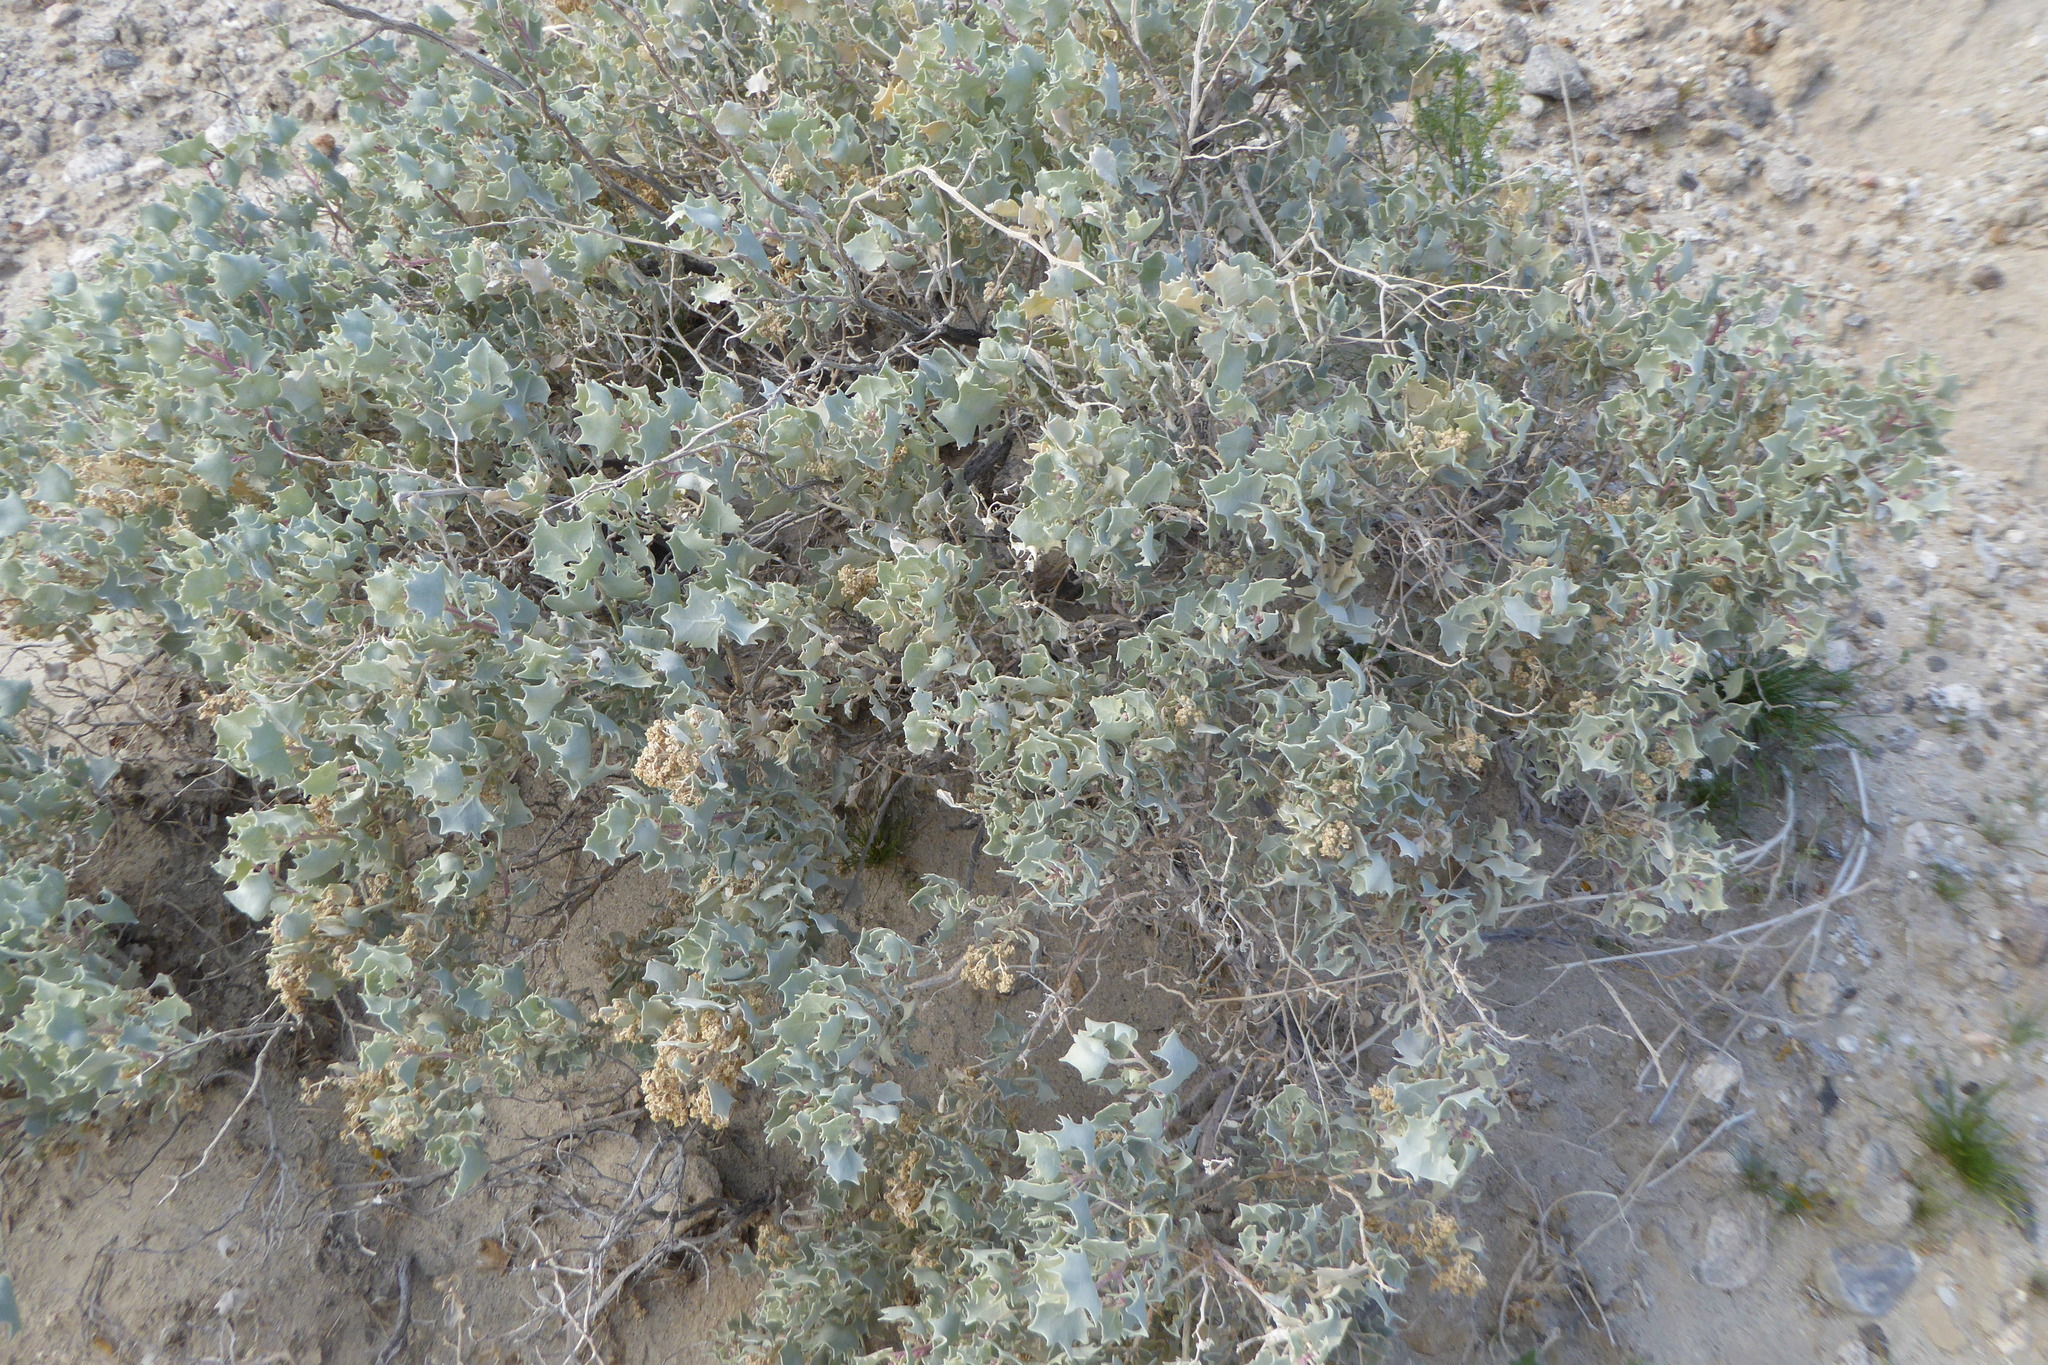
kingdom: Plantae
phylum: Tracheophyta
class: Magnoliopsida
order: Caryophyllales
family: Amaranthaceae
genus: Atriplex
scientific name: Atriplex hymenelytra
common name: Desert-holly
